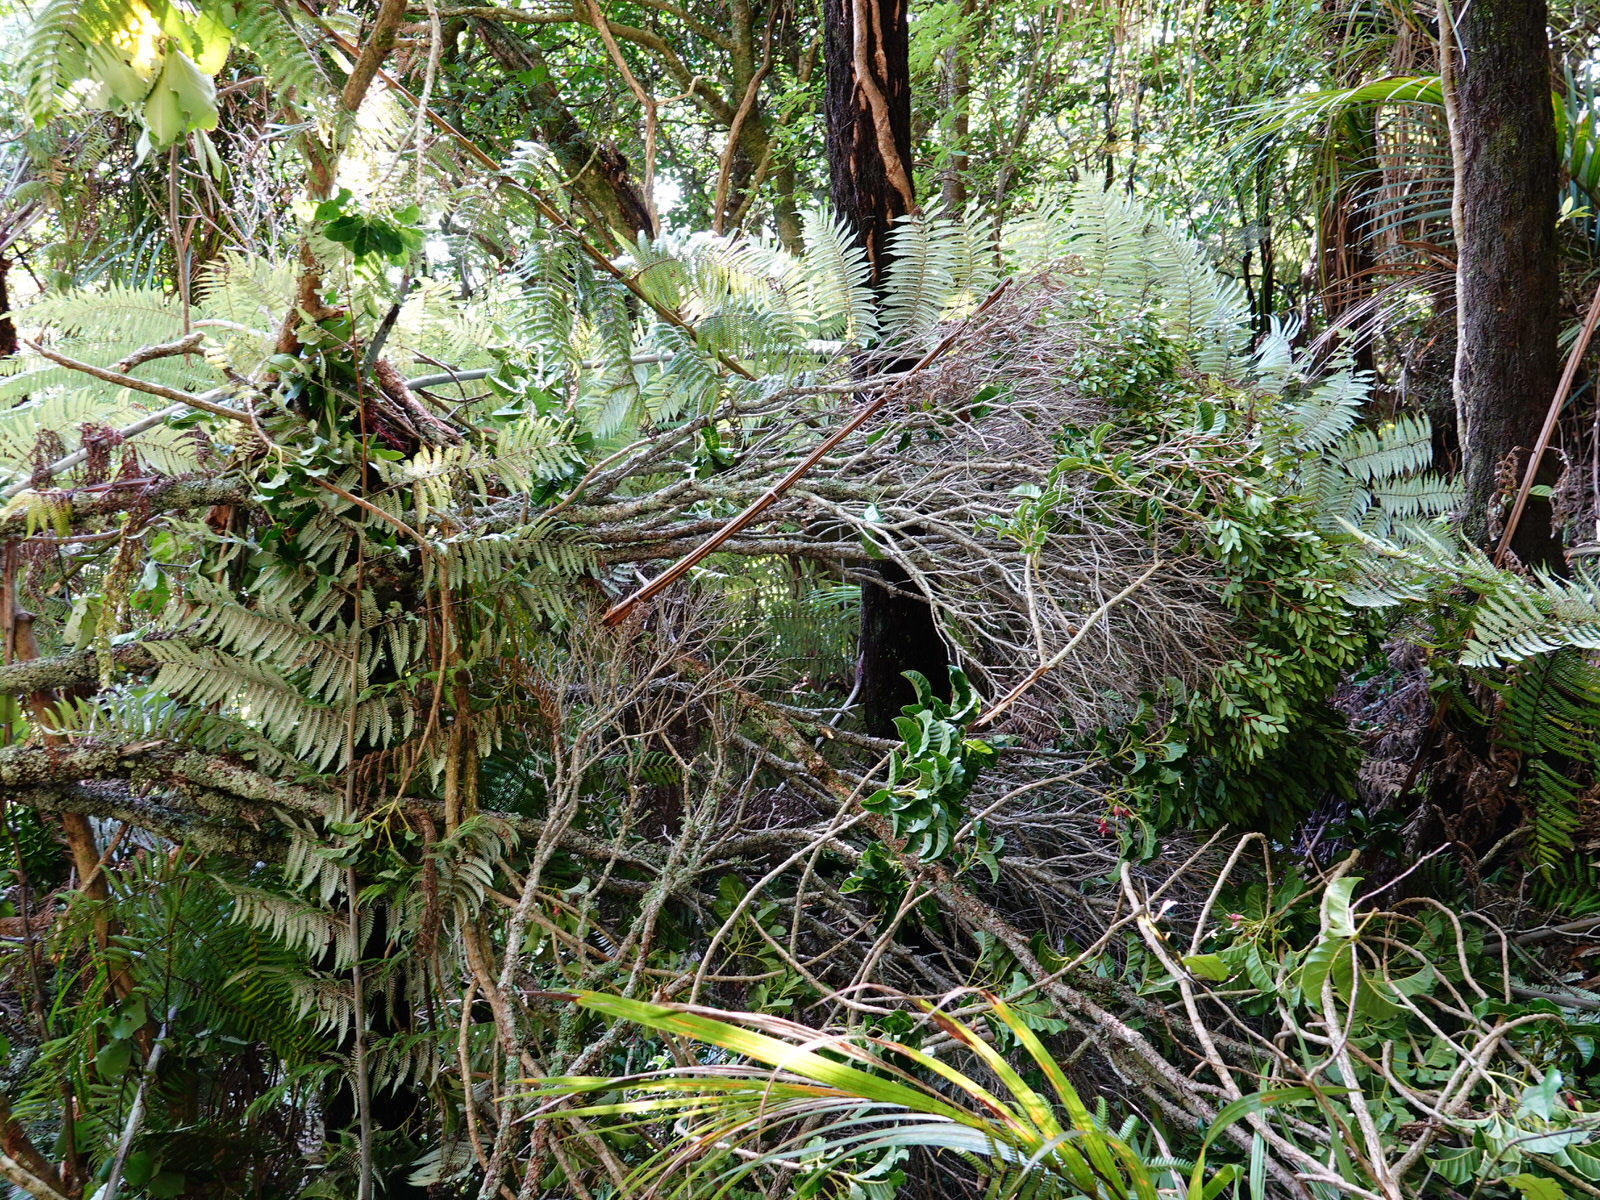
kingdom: Plantae
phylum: Tracheophyta
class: Magnoliopsida
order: Myrtales
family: Myrtaceae
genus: Metrosideros
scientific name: Metrosideros robusta
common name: Northern rata
